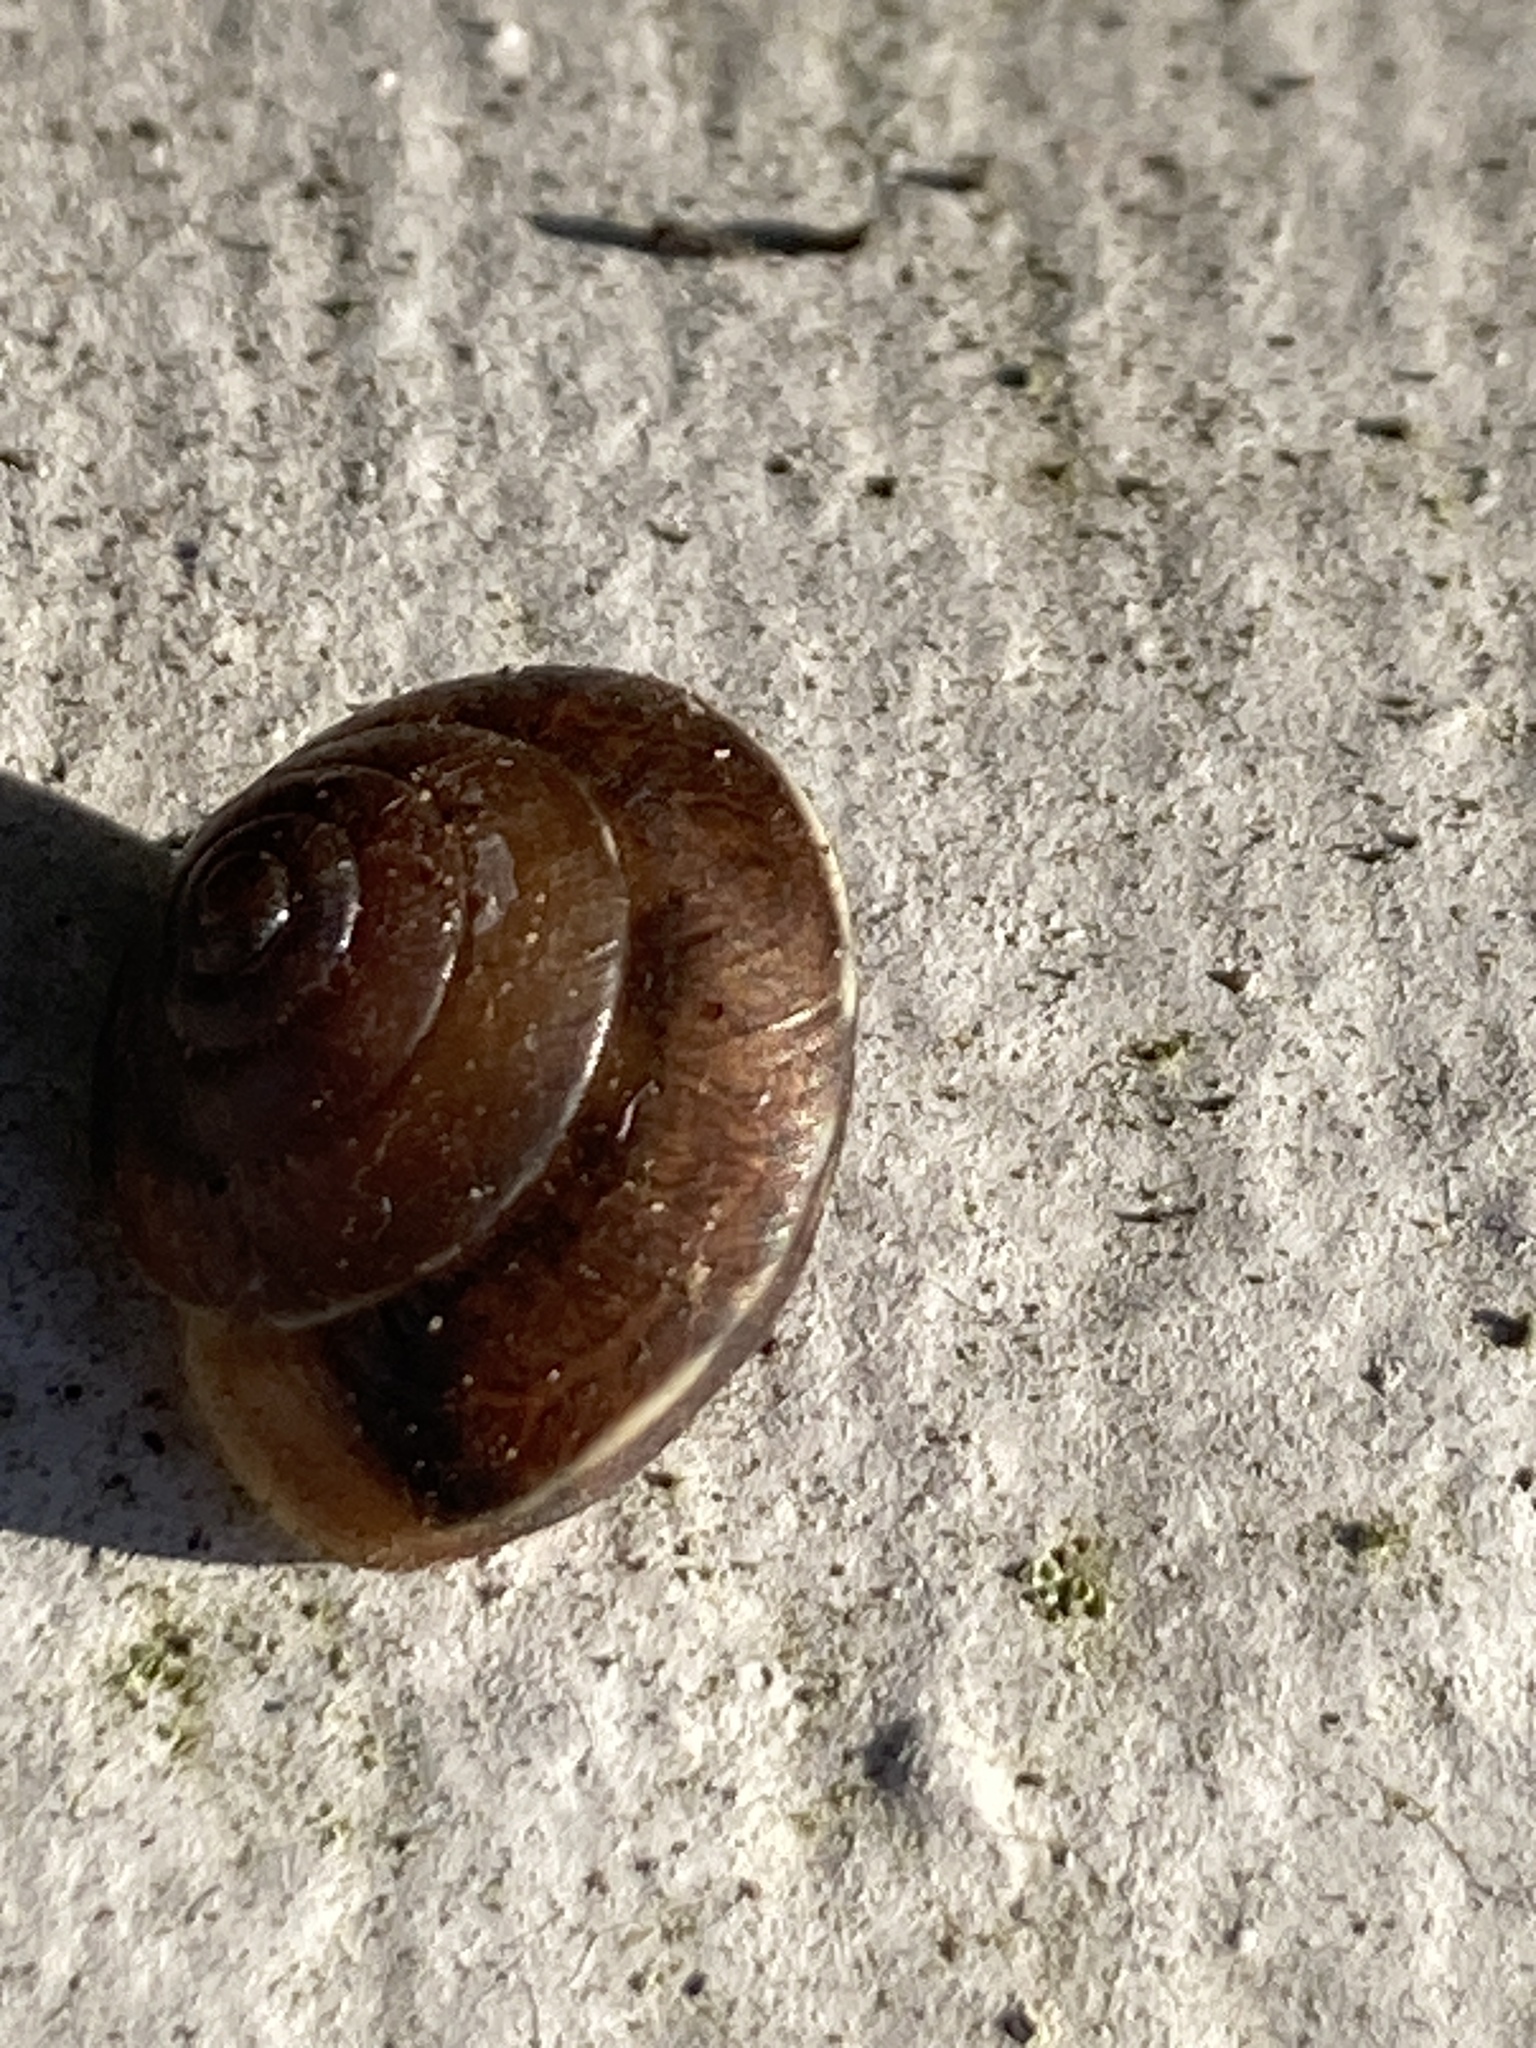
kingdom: Animalia
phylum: Mollusca
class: Gastropoda
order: Stylommatophora
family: Hygromiidae
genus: Hygromia
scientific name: Hygromia cinctella
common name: Girdled snail
